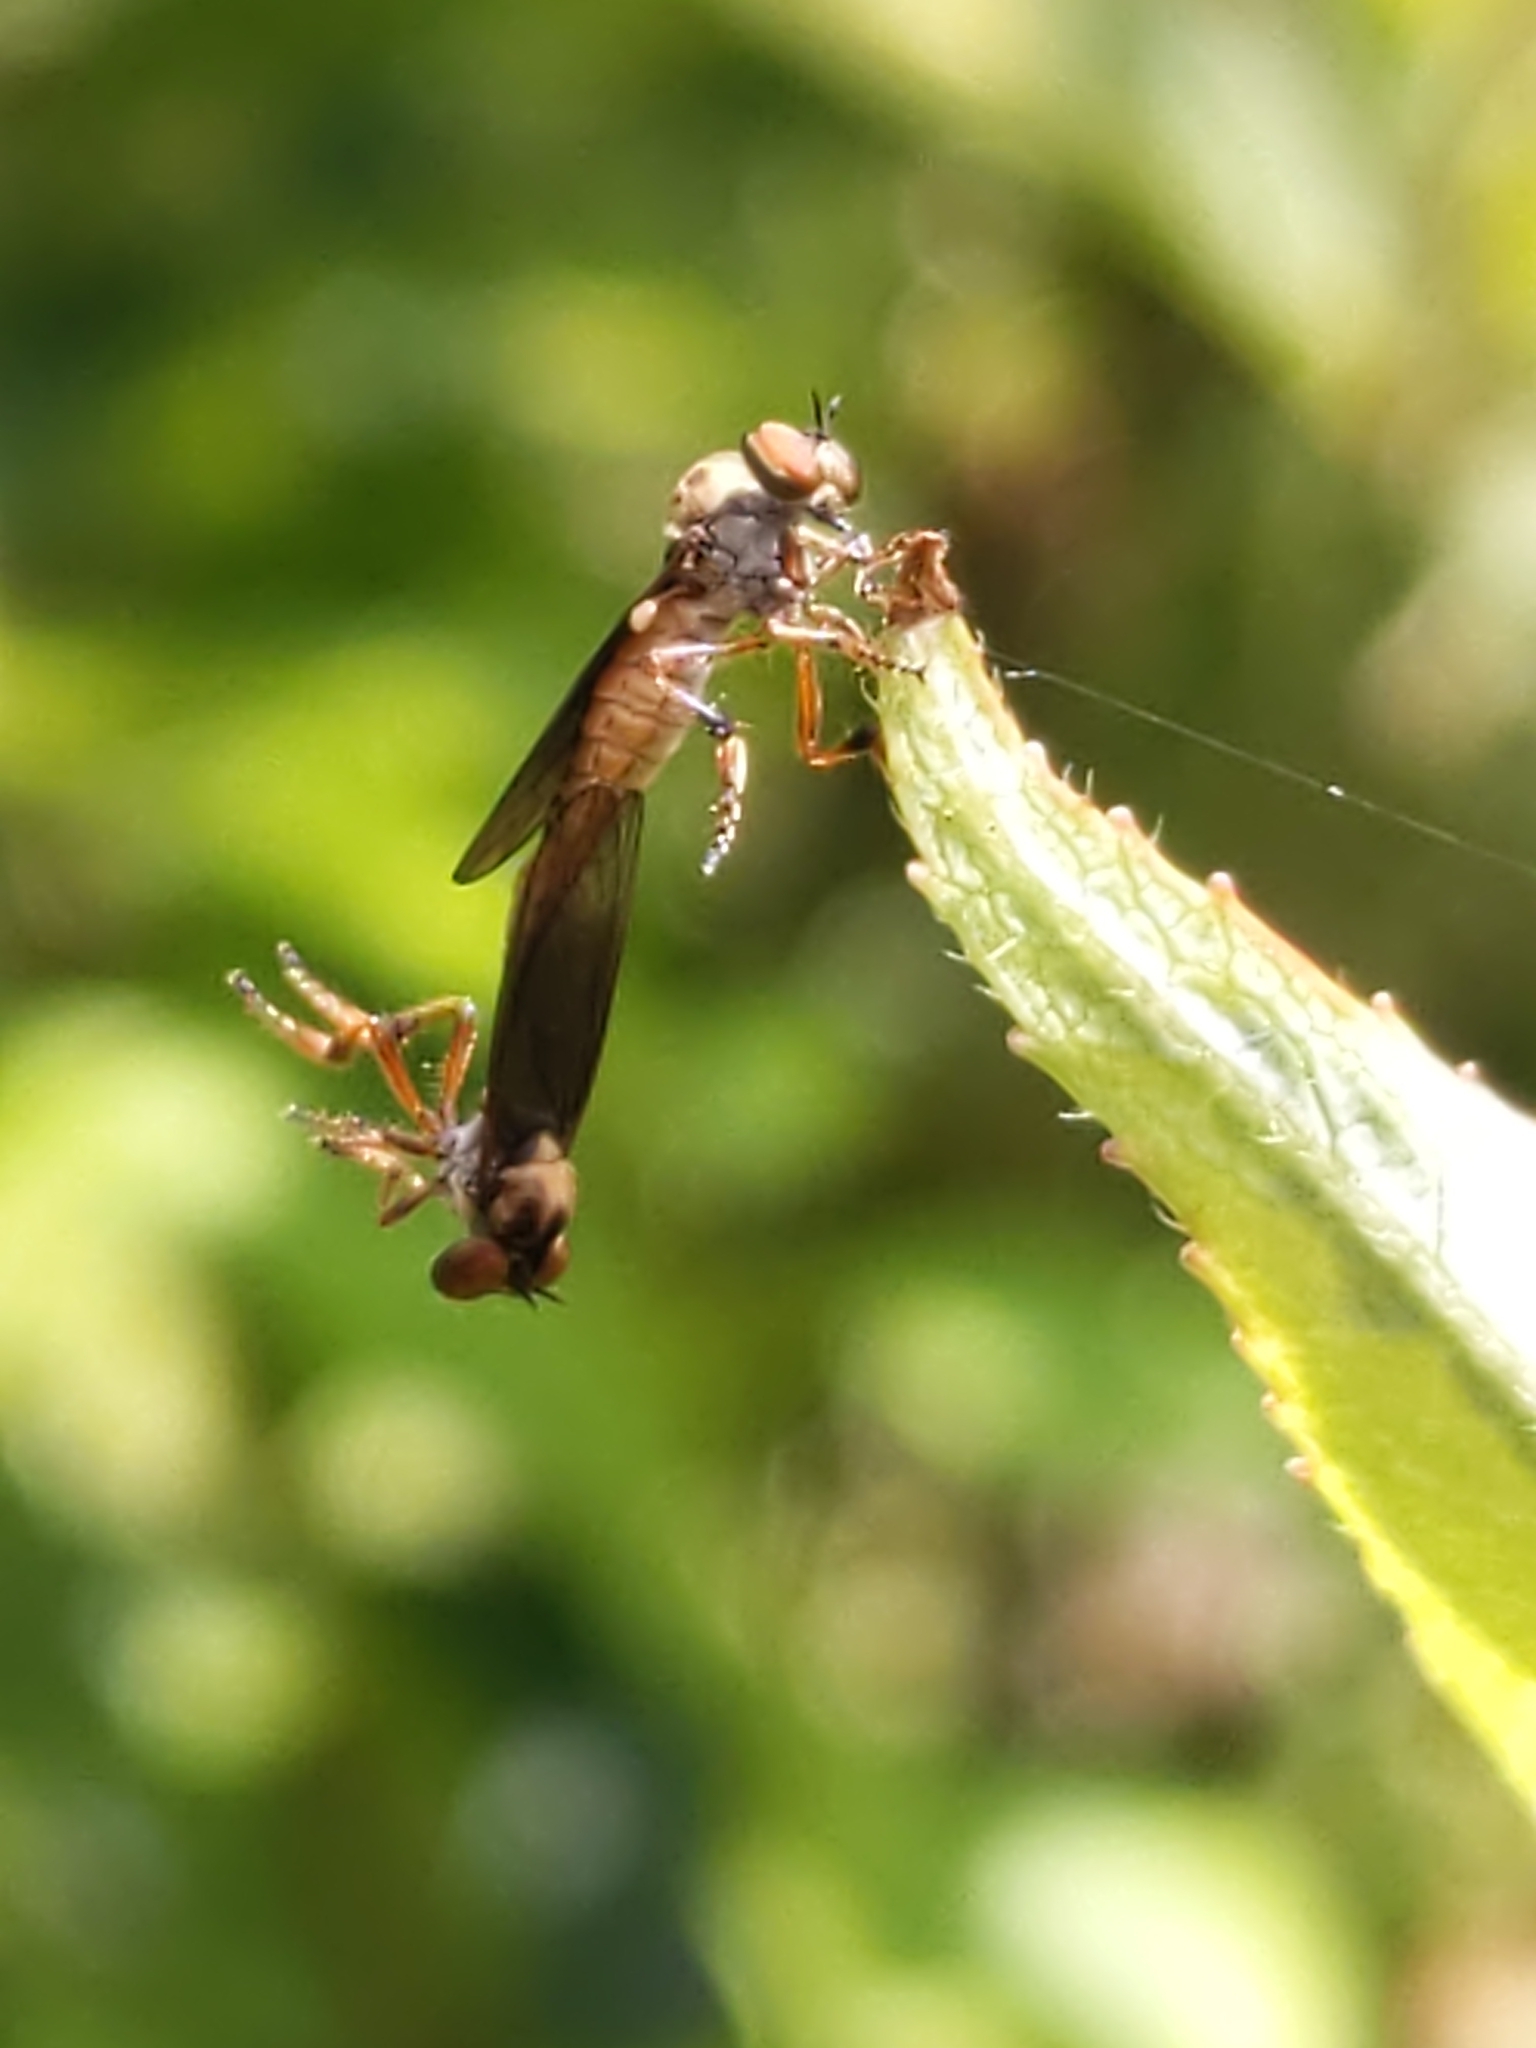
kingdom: Animalia
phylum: Arthropoda
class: Insecta
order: Diptera
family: Asilidae
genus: Holcocephala
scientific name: Holcocephala
